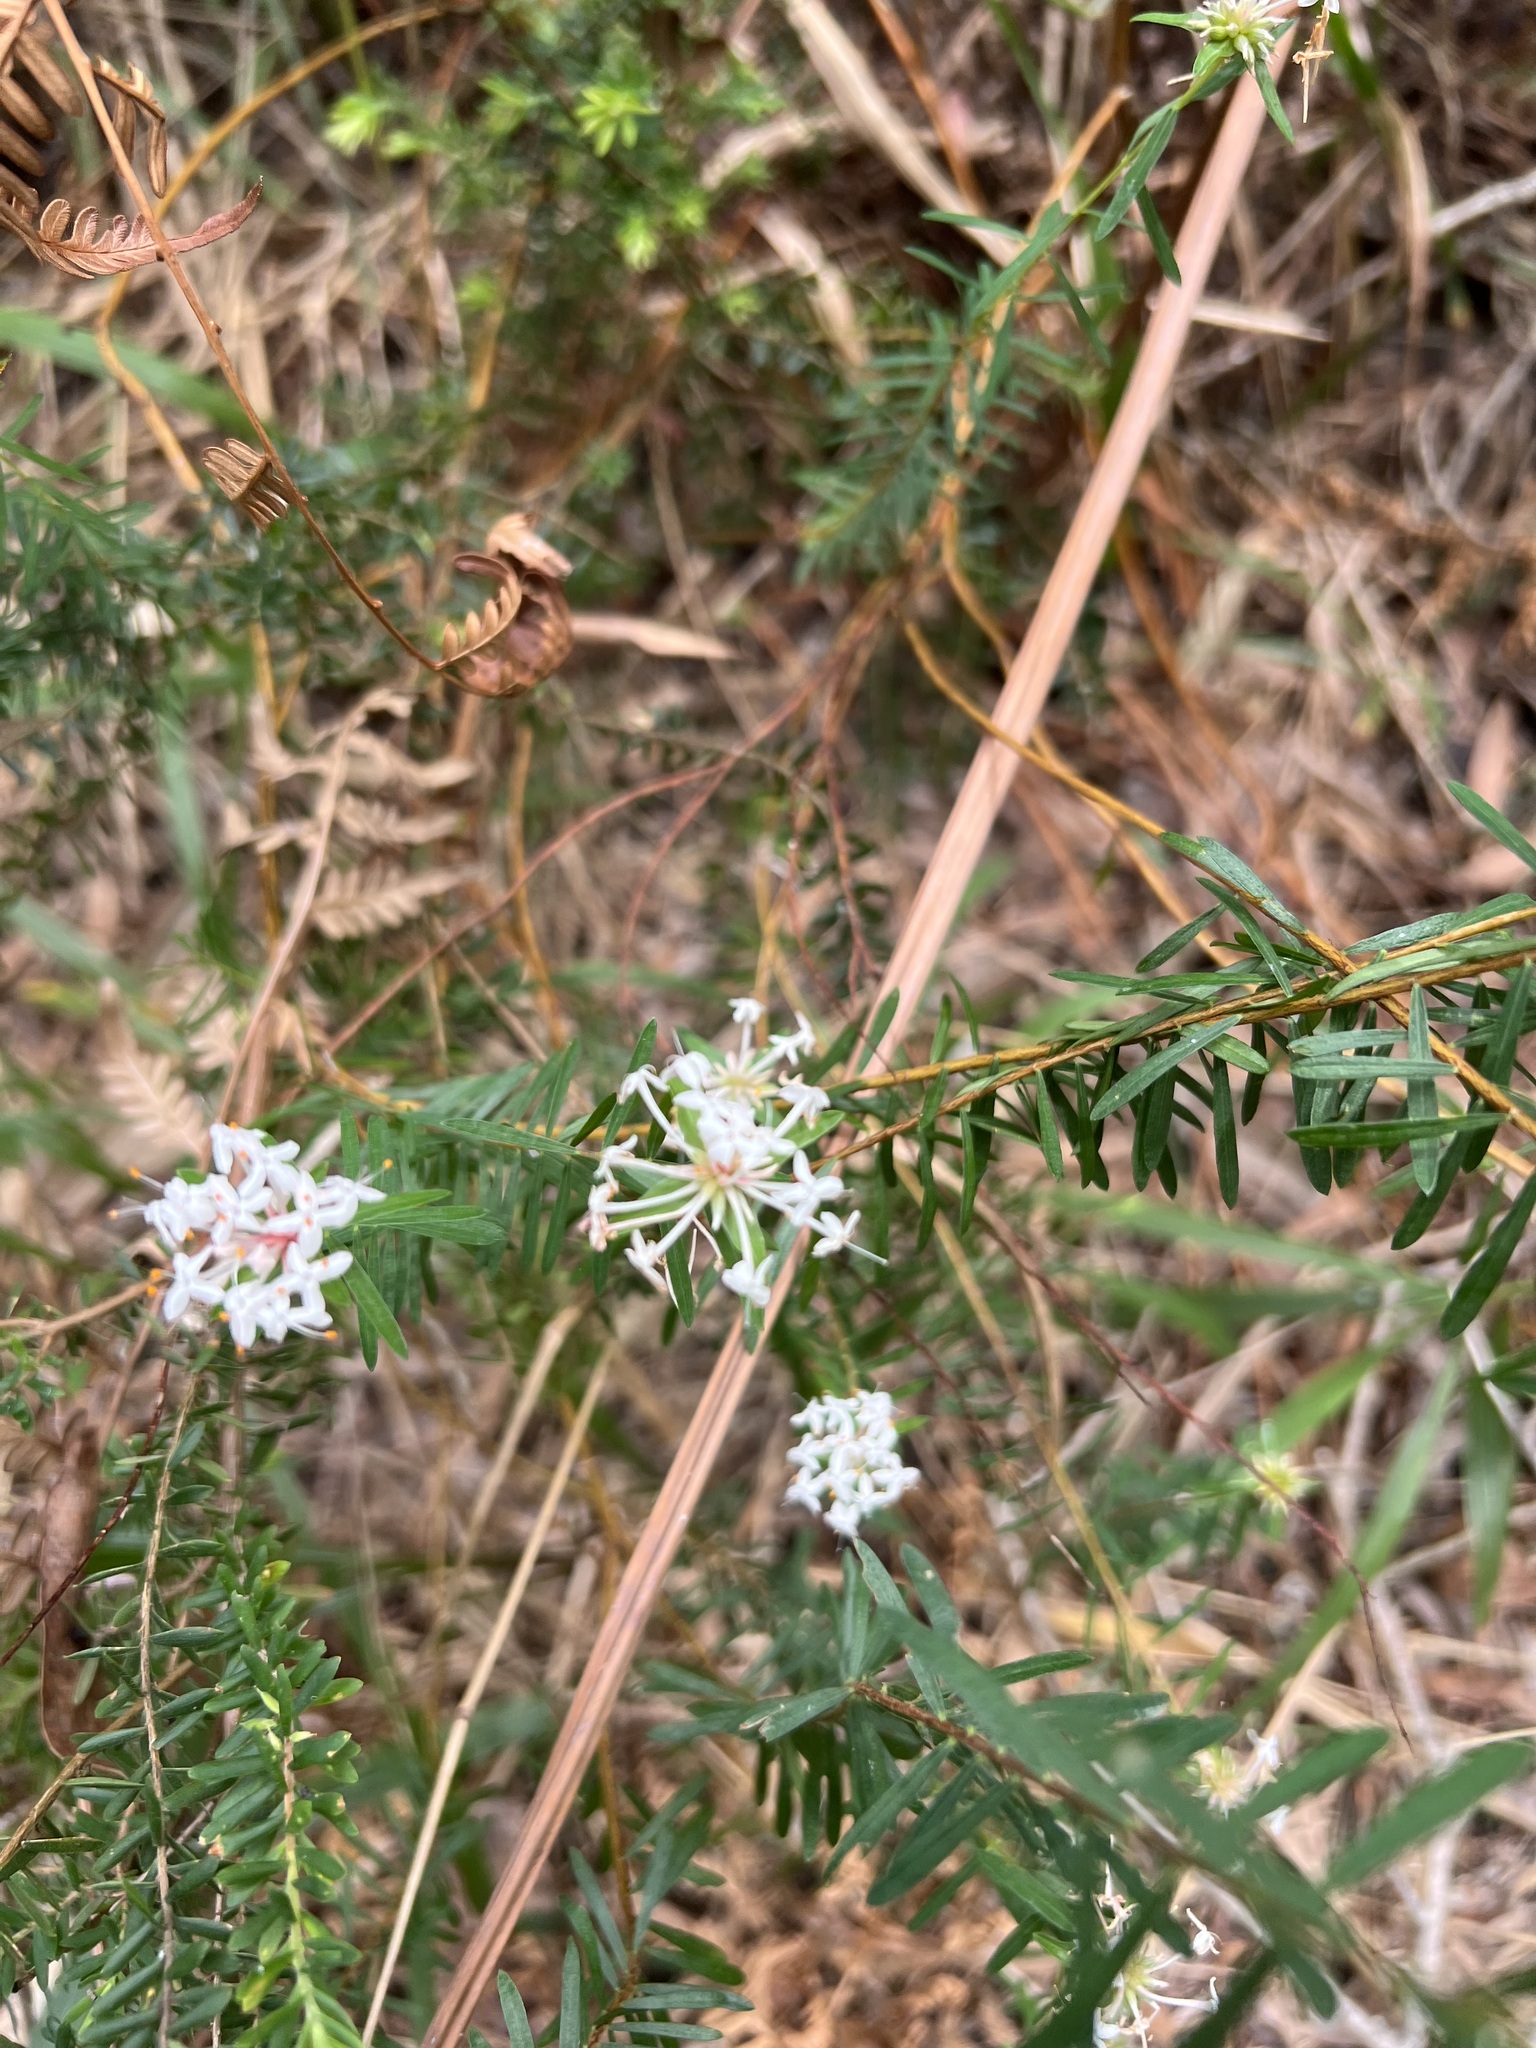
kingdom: Plantae
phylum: Tracheophyta
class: Magnoliopsida
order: Malvales
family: Thymelaeaceae
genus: Pimelea
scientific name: Pimelea linifolia
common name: Queen-of-the-bush
